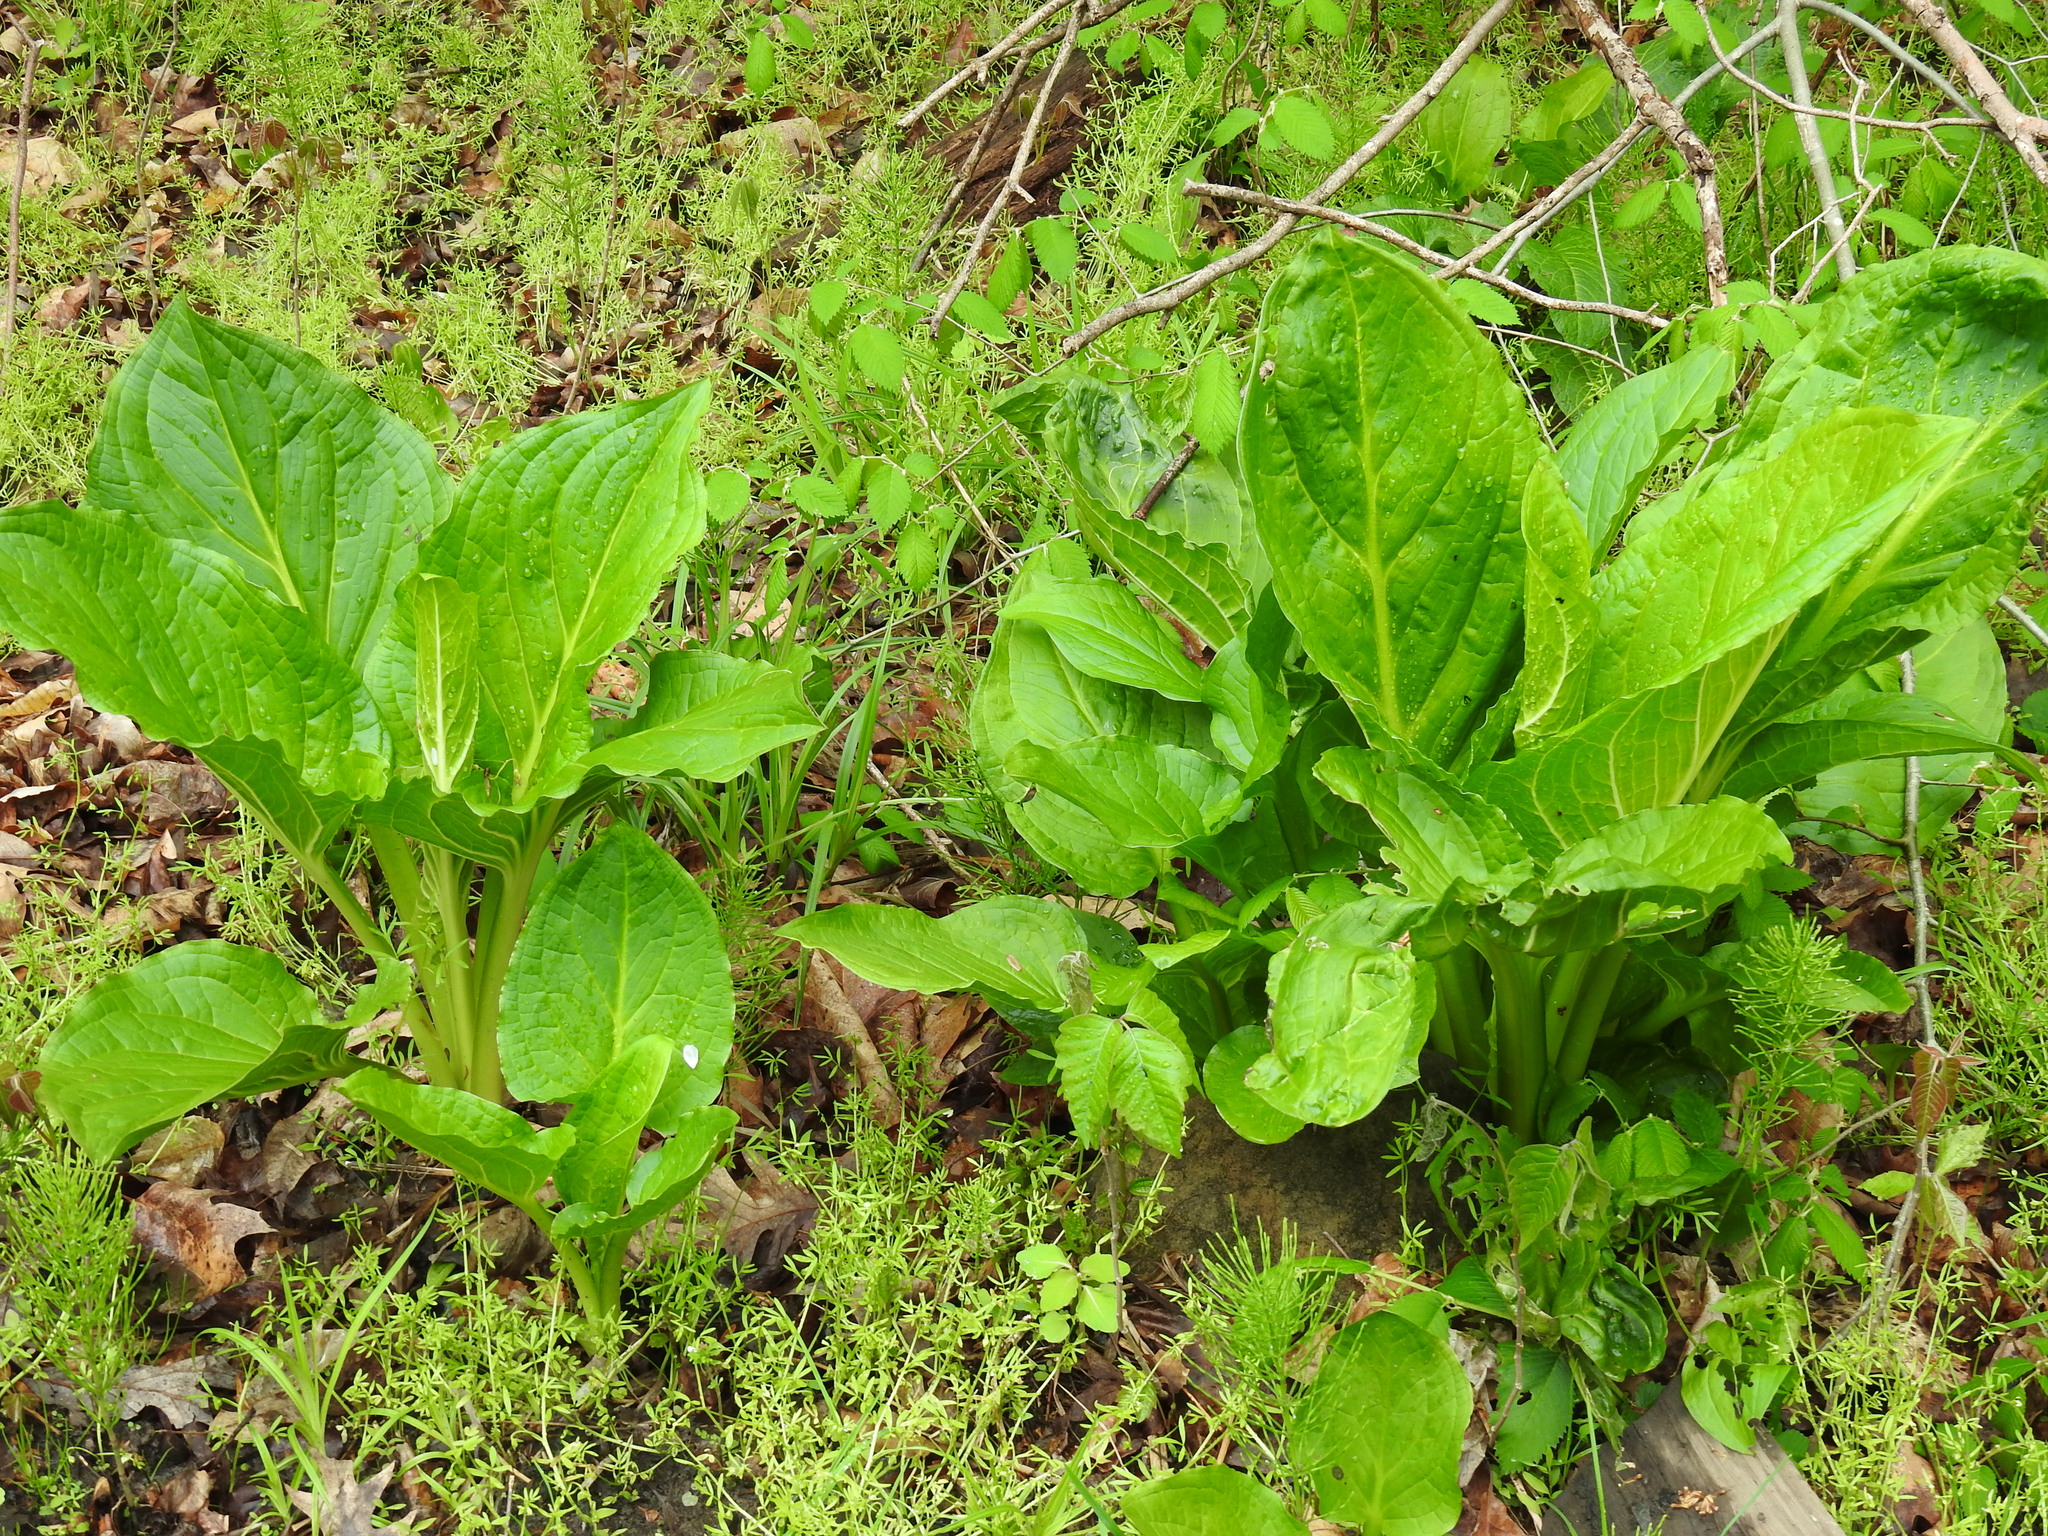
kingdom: Plantae
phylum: Tracheophyta
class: Liliopsida
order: Alismatales
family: Araceae
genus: Symplocarpus
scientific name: Symplocarpus foetidus
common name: Eastern skunk cabbage
